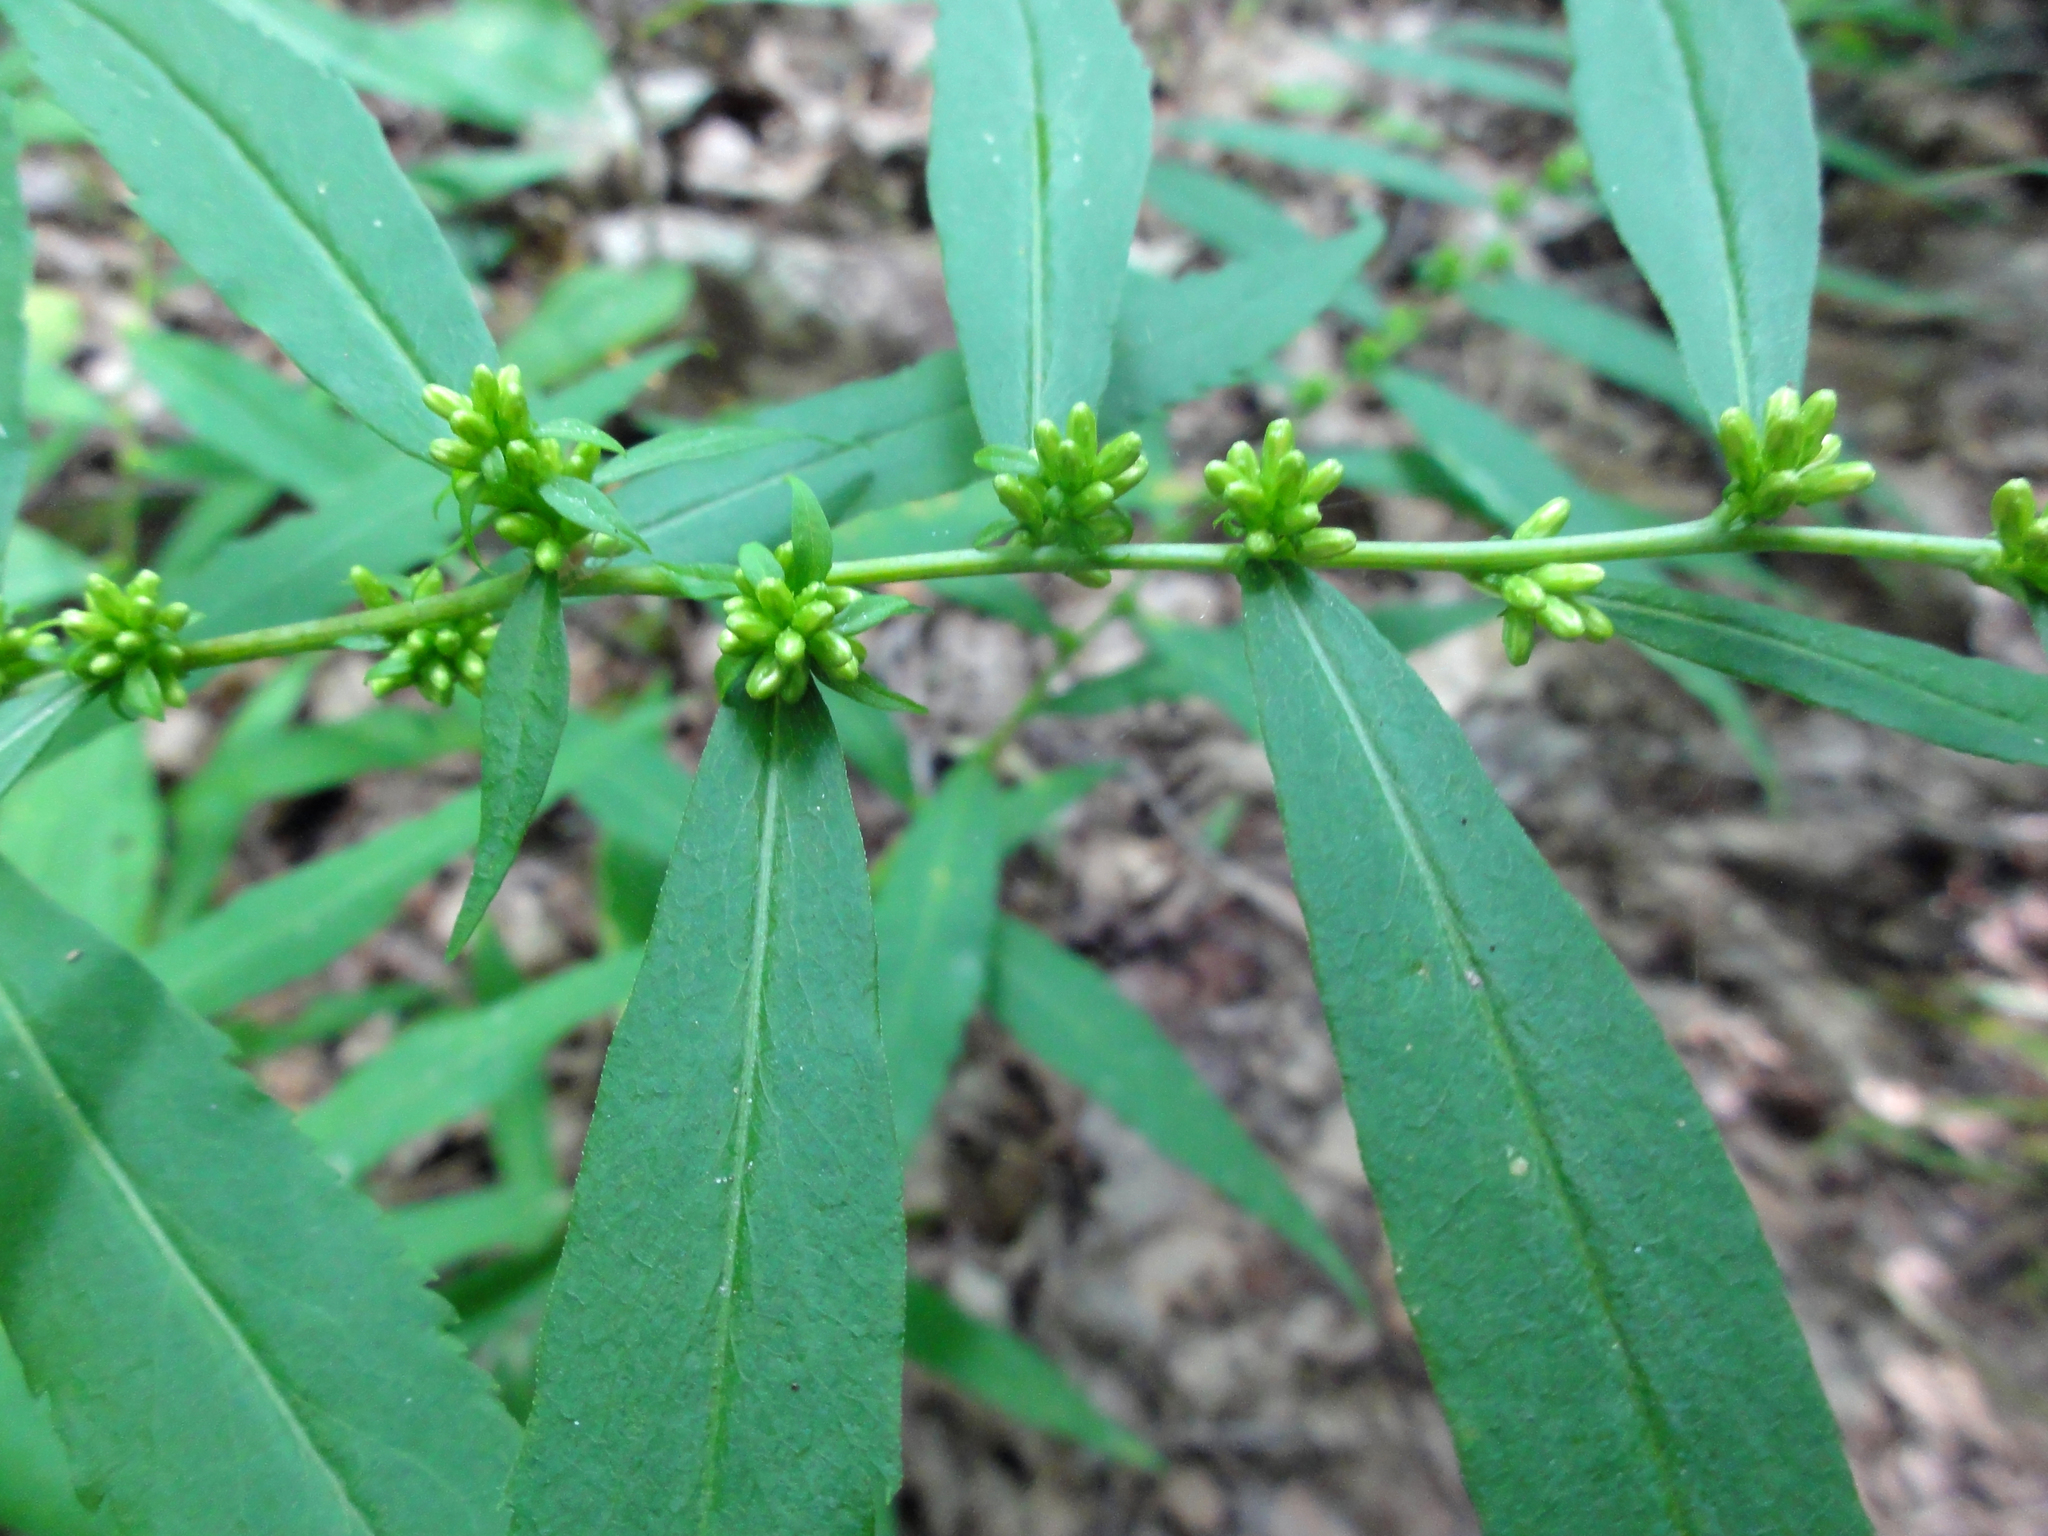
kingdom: Plantae
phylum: Tracheophyta
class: Magnoliopsida
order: Asterales
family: Asteraceae
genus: Solidago
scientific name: Solidago caesia
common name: Woodland goldenrod
